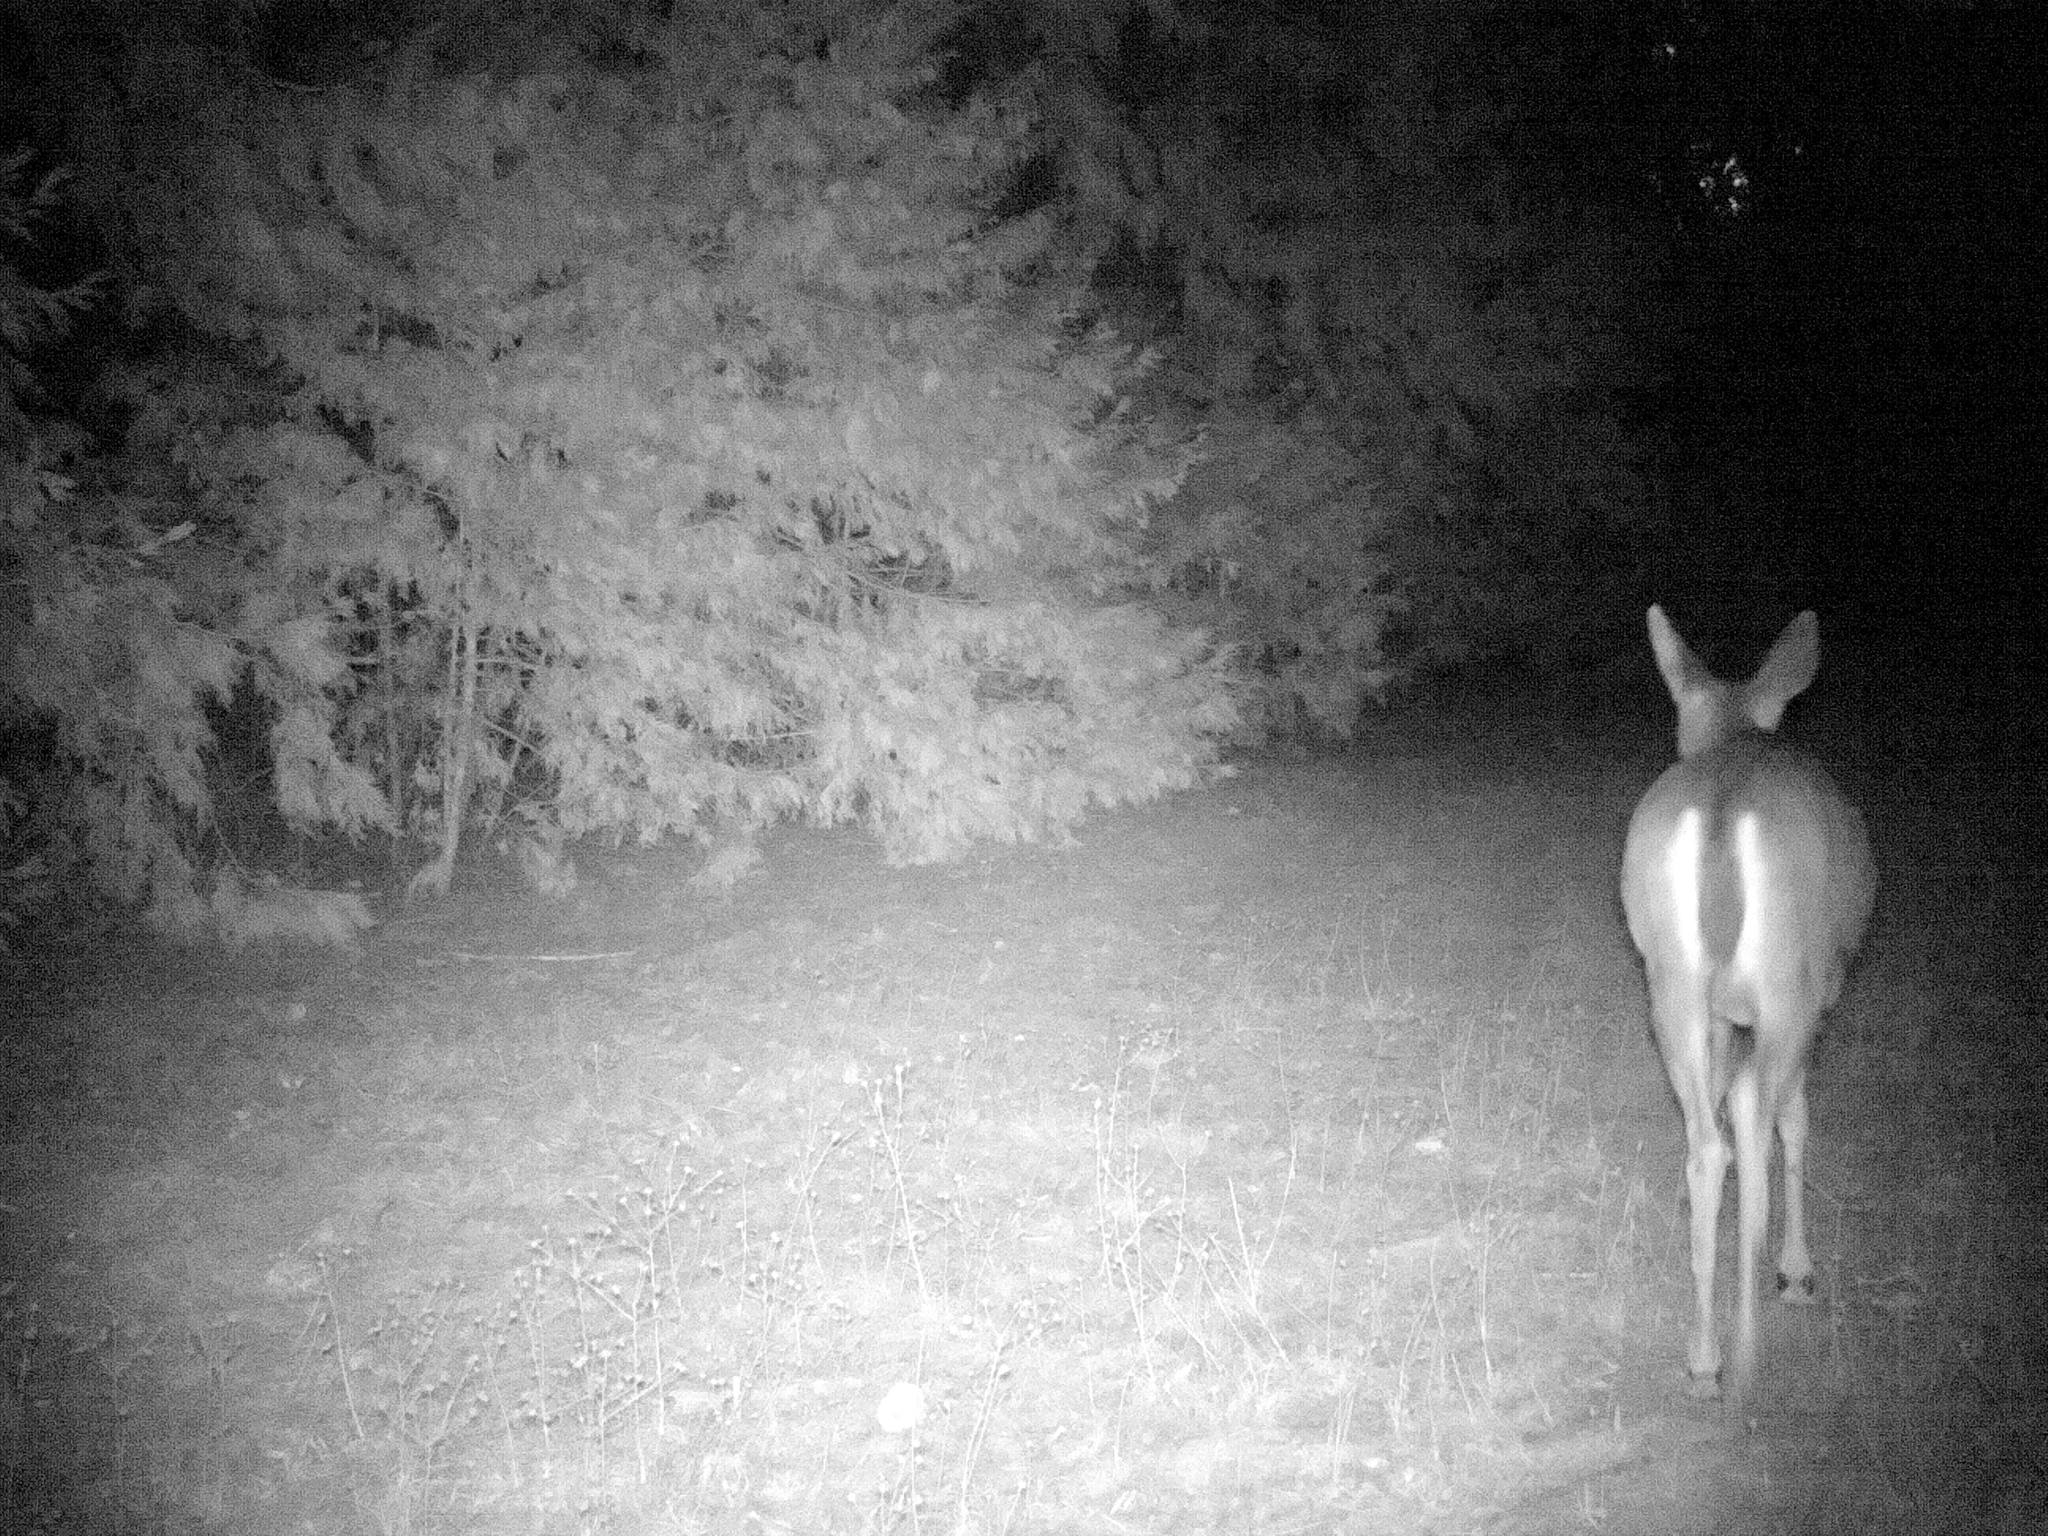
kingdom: Animalia
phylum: Chordata
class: Mammalia
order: Artiodactyla
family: Cervidae
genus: Odocoileus
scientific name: Odocoileus hemionus
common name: Mule deer
